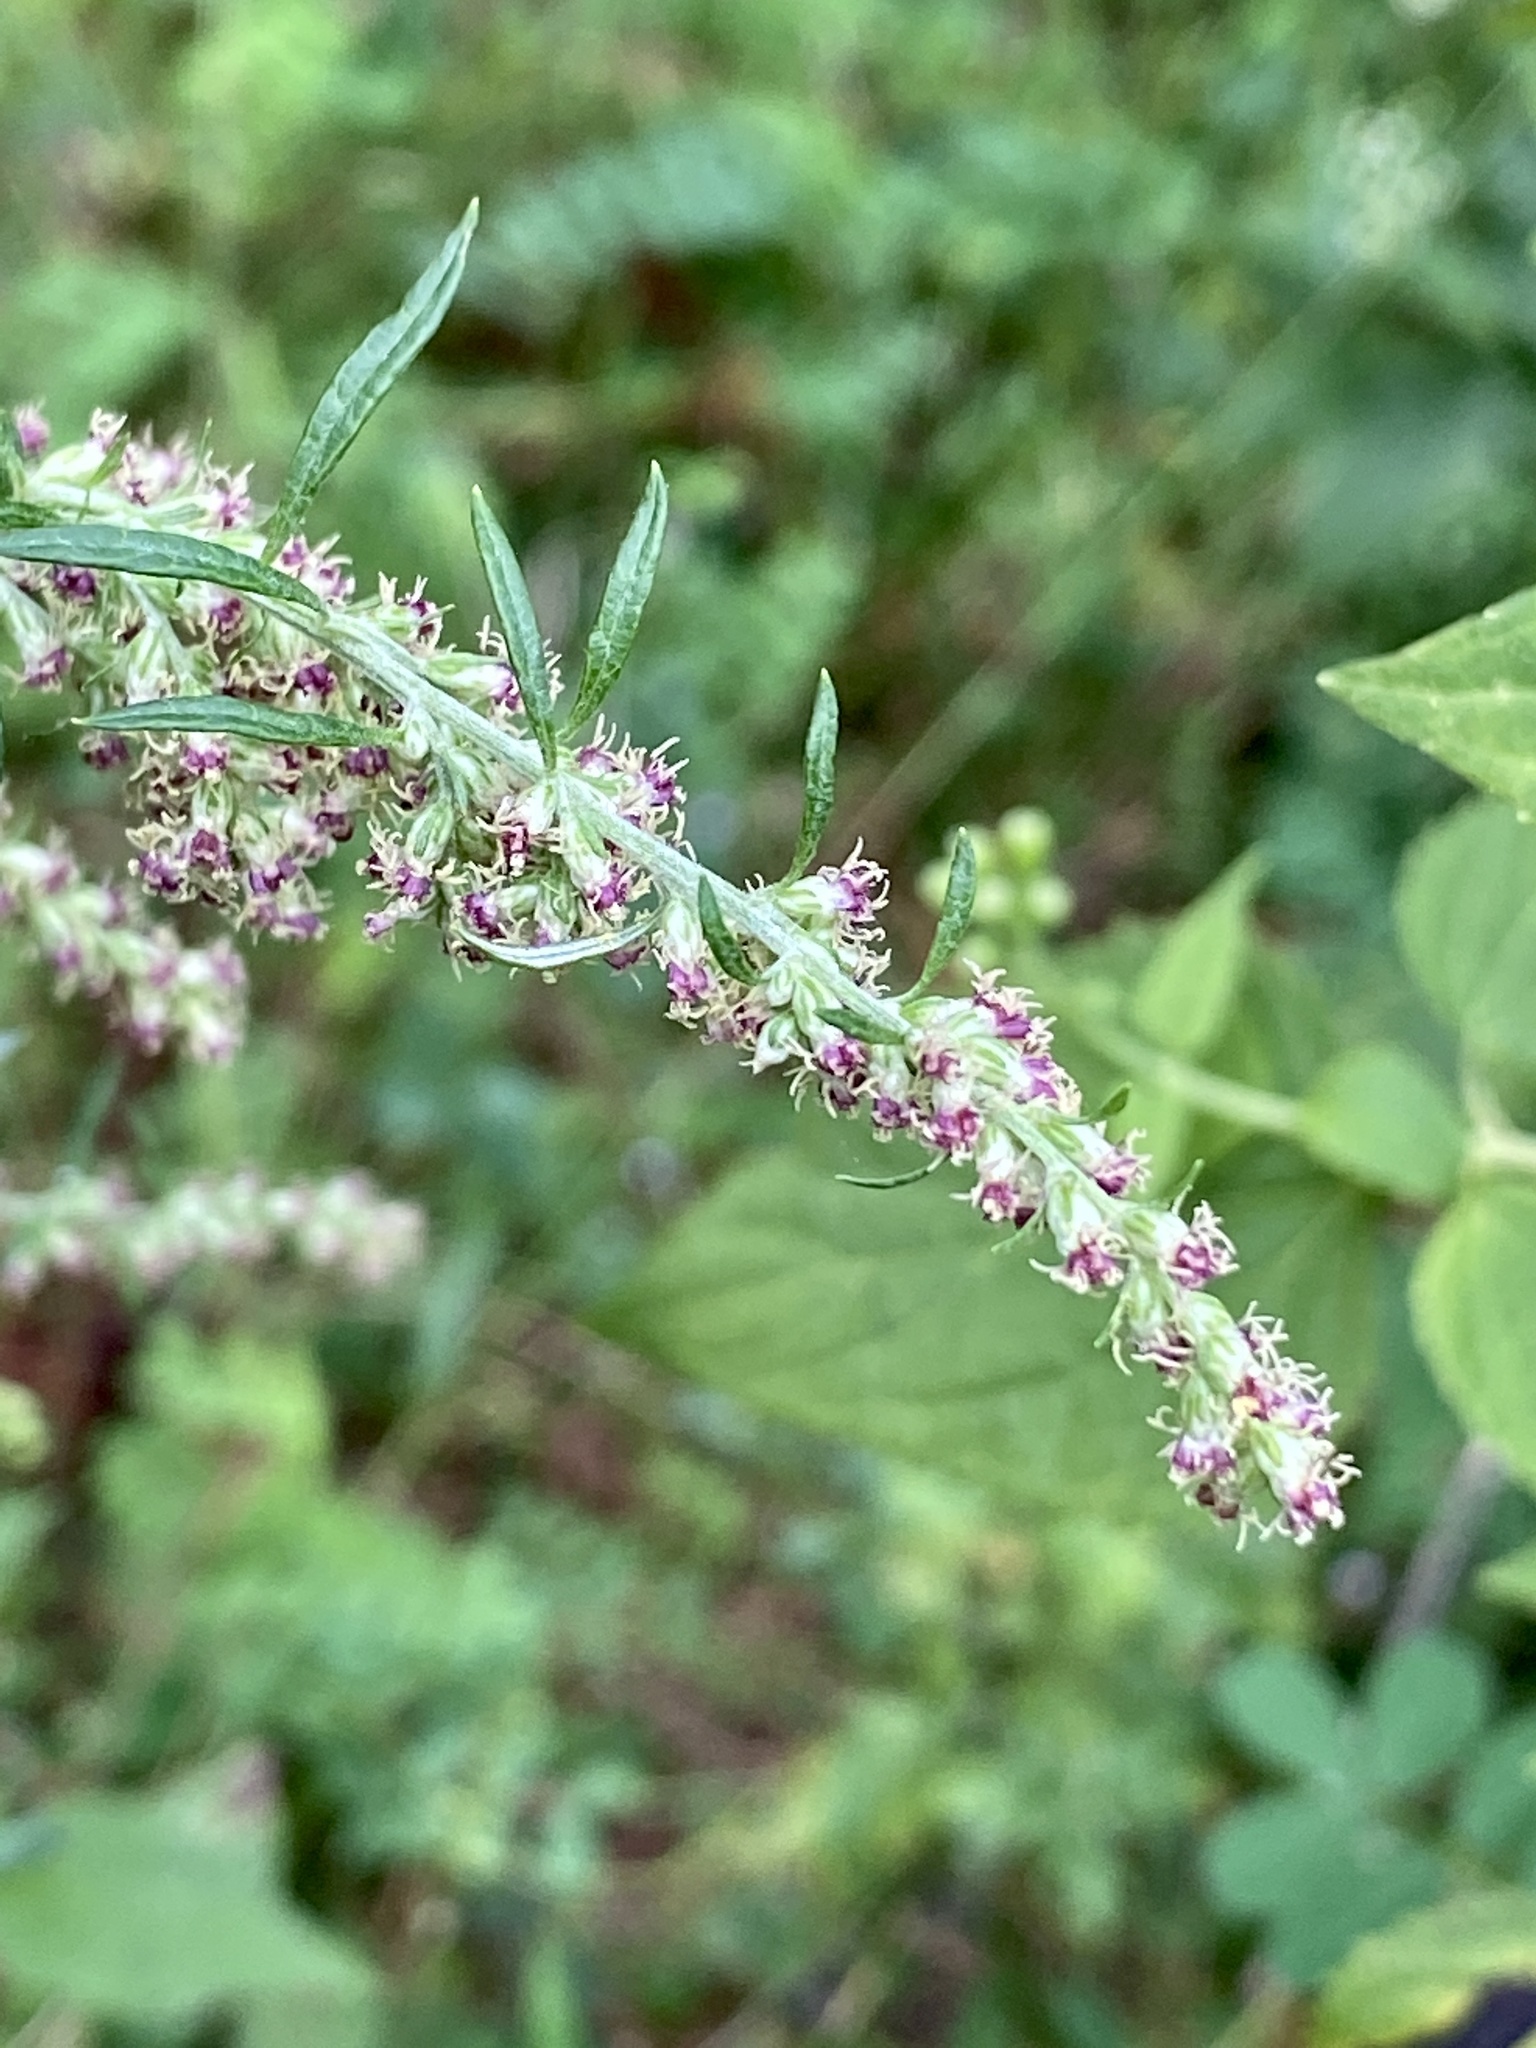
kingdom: Plantae
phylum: Tracheophyta
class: Magnoliopsida
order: Asterales
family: Asteraceae
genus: Artemisia
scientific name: Artemisia vulgaris
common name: Mugwort
